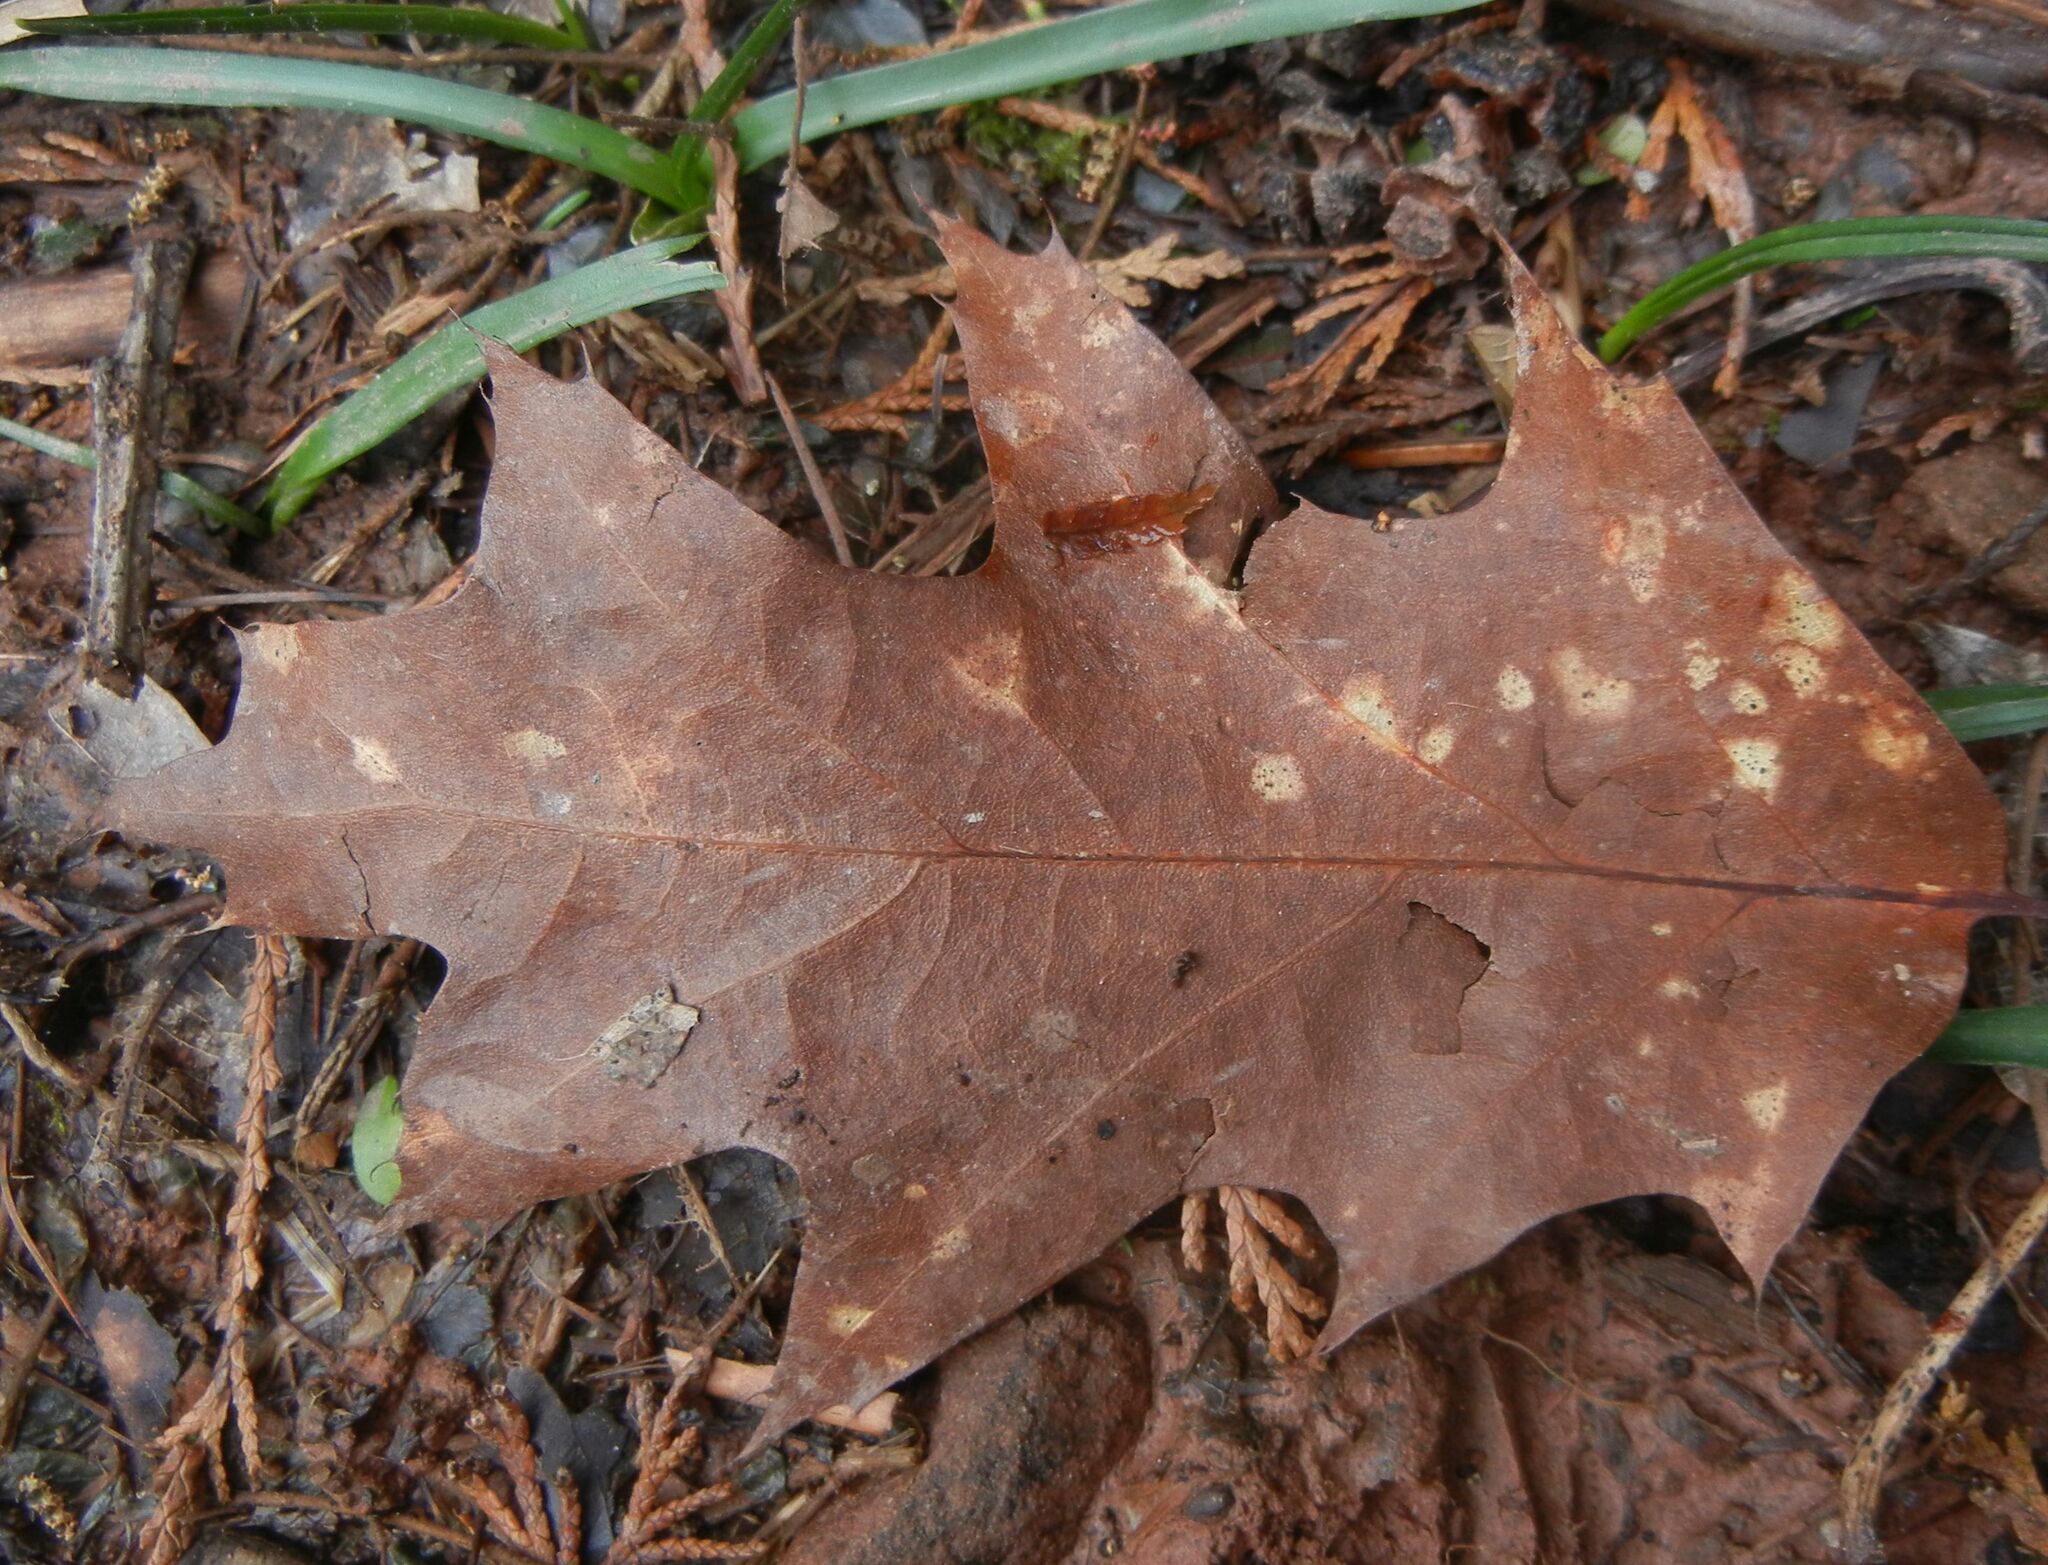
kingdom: Plantae
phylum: Tracheophyta
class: Magnoliopsida
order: Fagales
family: Fagaceae
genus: Quercus
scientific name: Quercus rubra
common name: Red oak
